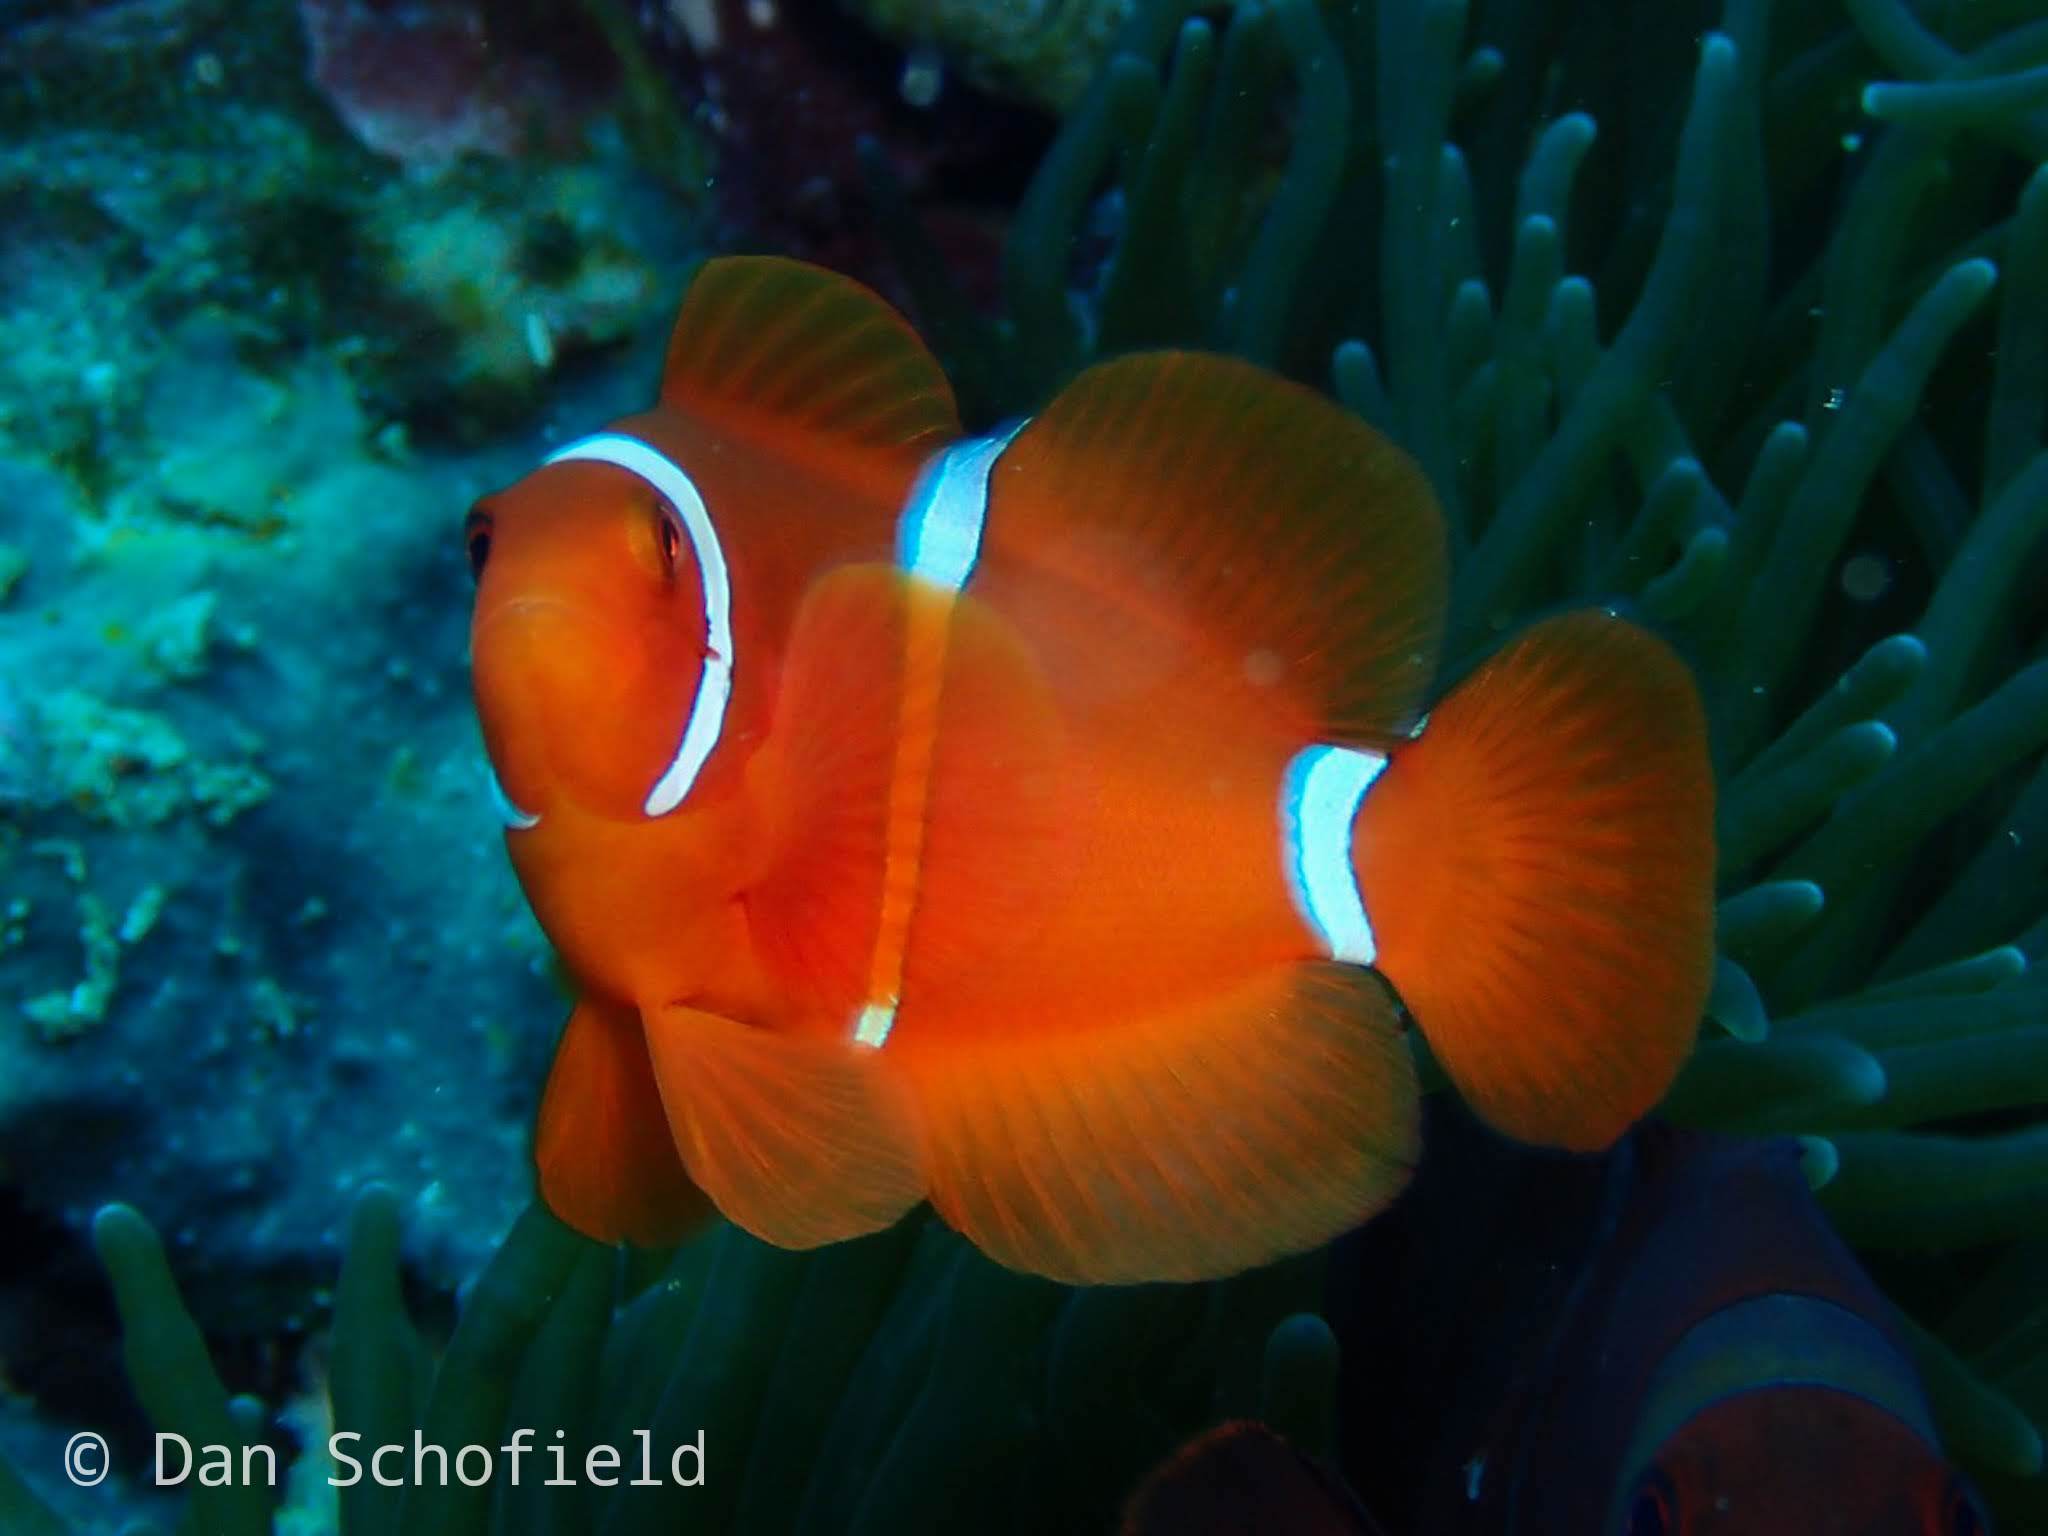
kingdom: Animalia
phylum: Chordata
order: Perciformes
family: Pomacentridae
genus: Premnas
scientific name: Premnas biaculeatus
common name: Spinecheek anemonefish
